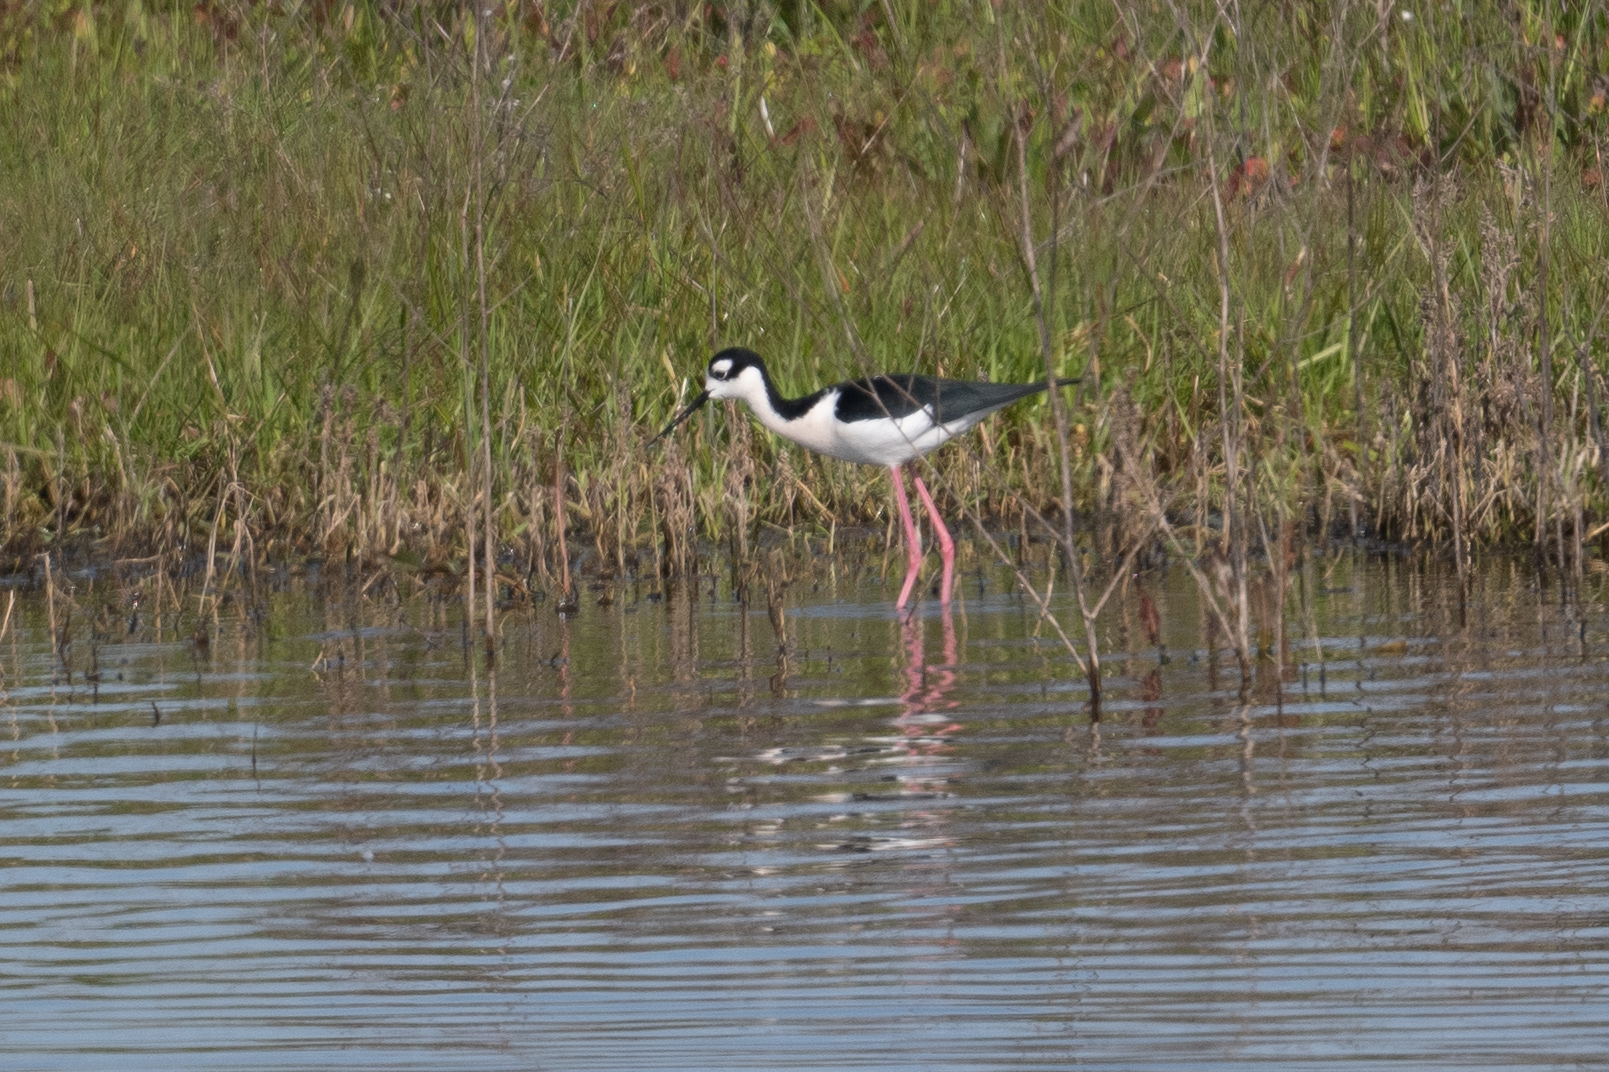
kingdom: Animalia
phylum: Chordata
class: Aves
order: Charadriiformes
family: Recurvirostridae
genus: Himantopus
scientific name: Himantopus mexicanus
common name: Black-necked stilt
